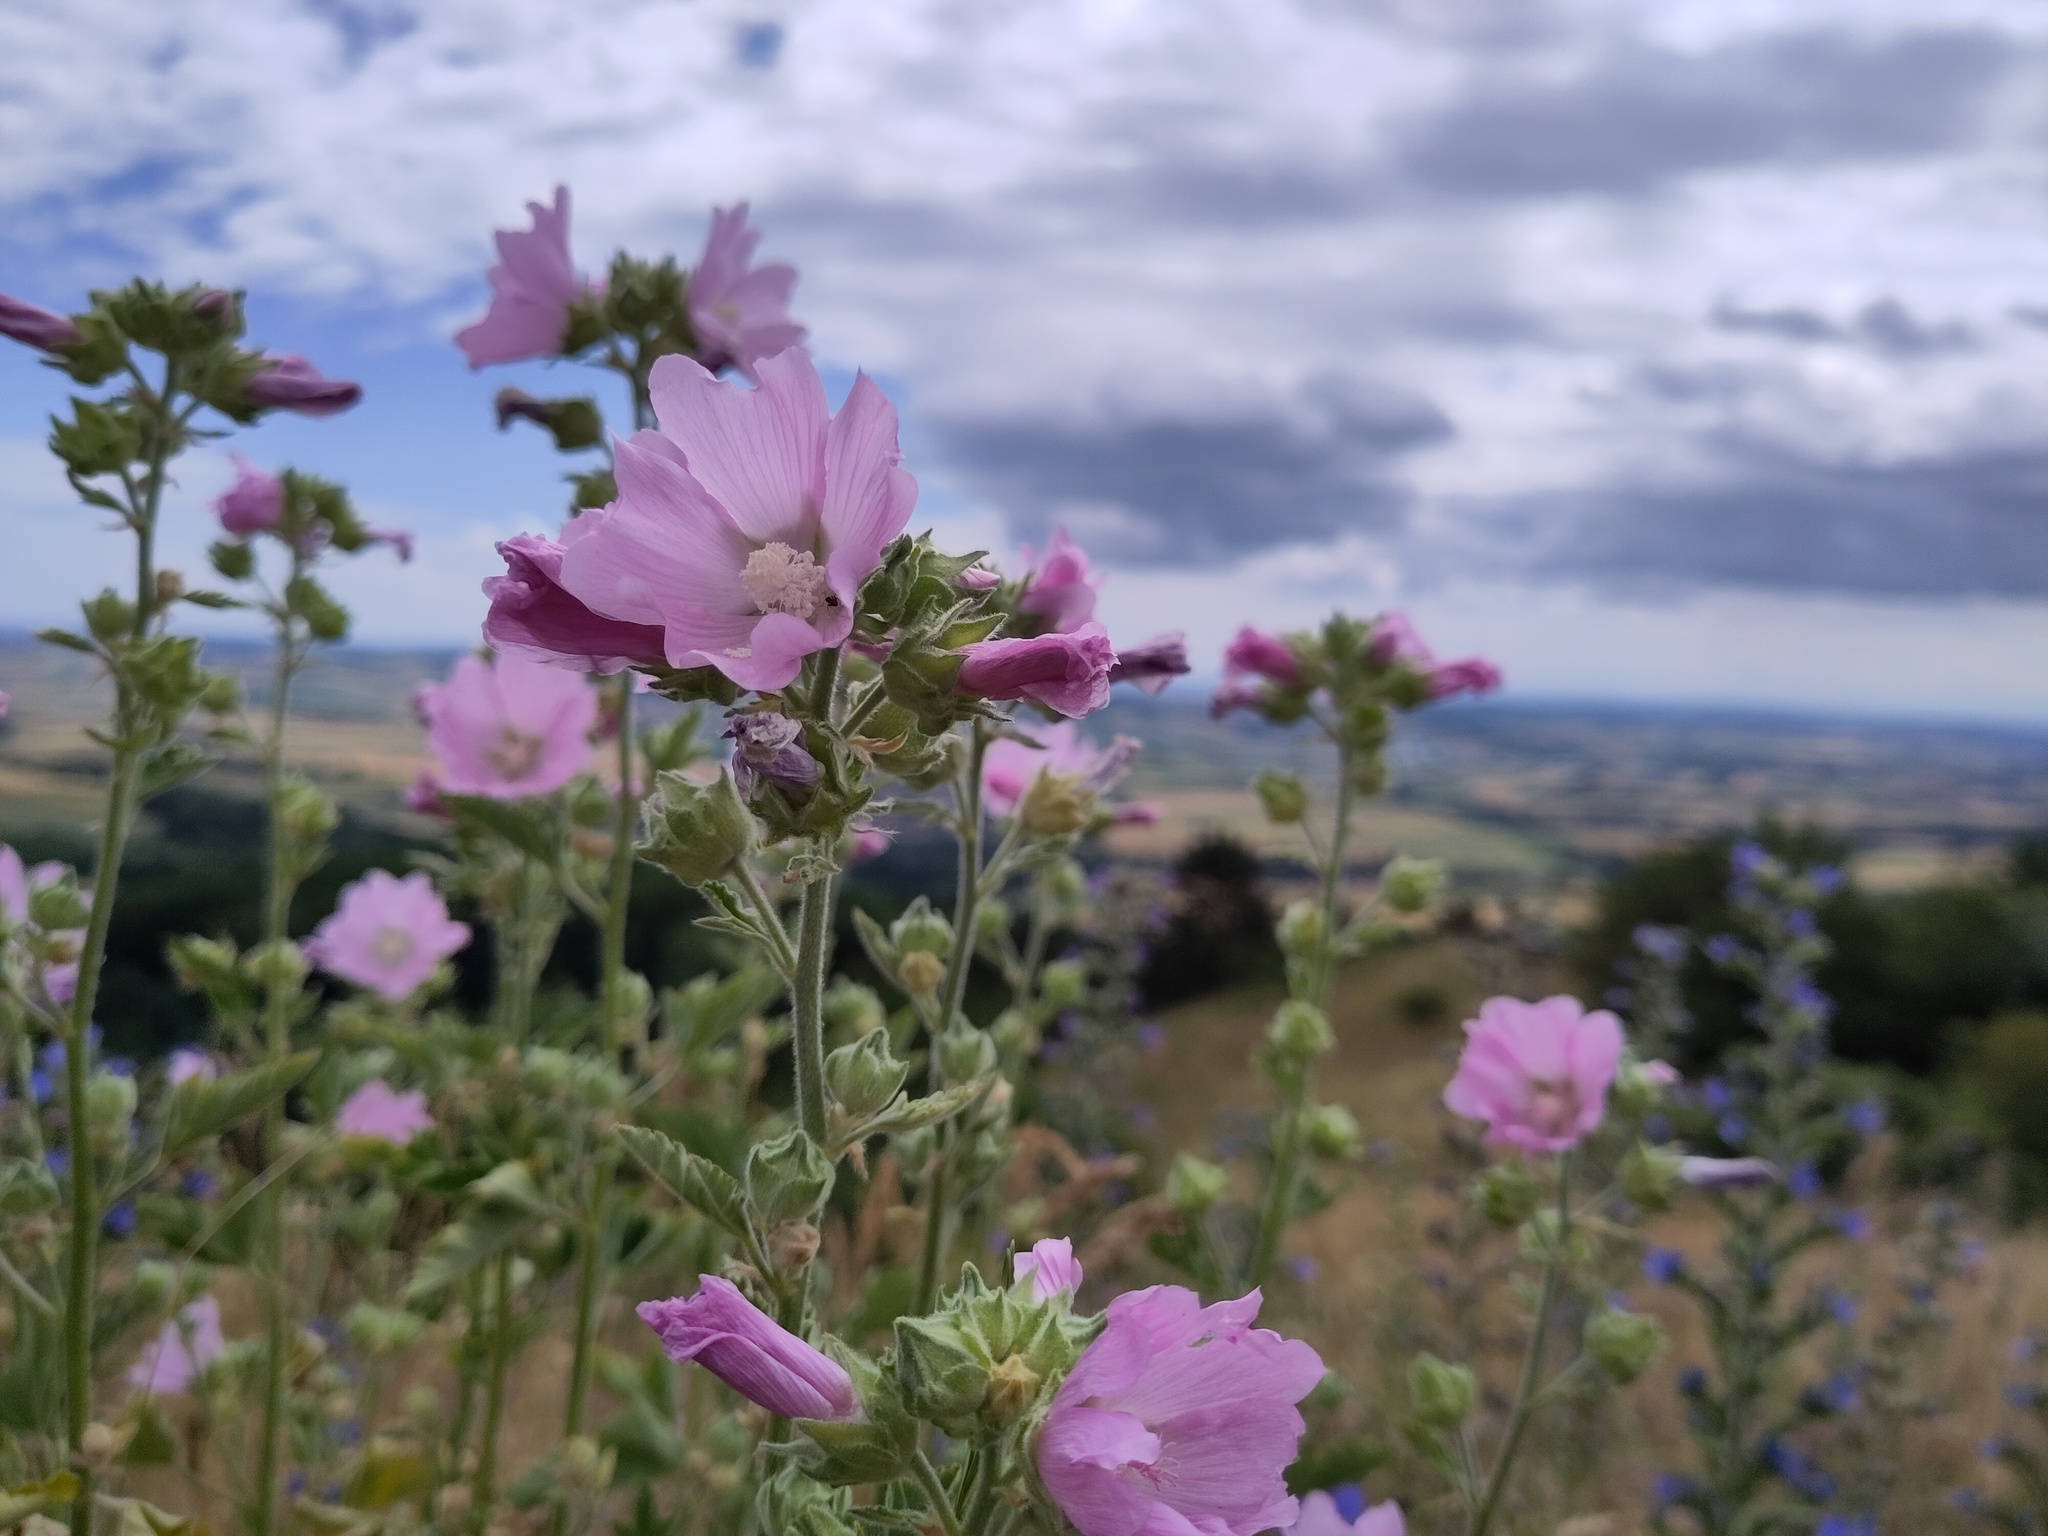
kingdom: Plantae
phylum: Tracheophyta
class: Magnoliopsida
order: Malvales
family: Malvaceae
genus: Malva
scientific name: Malva thuringiaca
